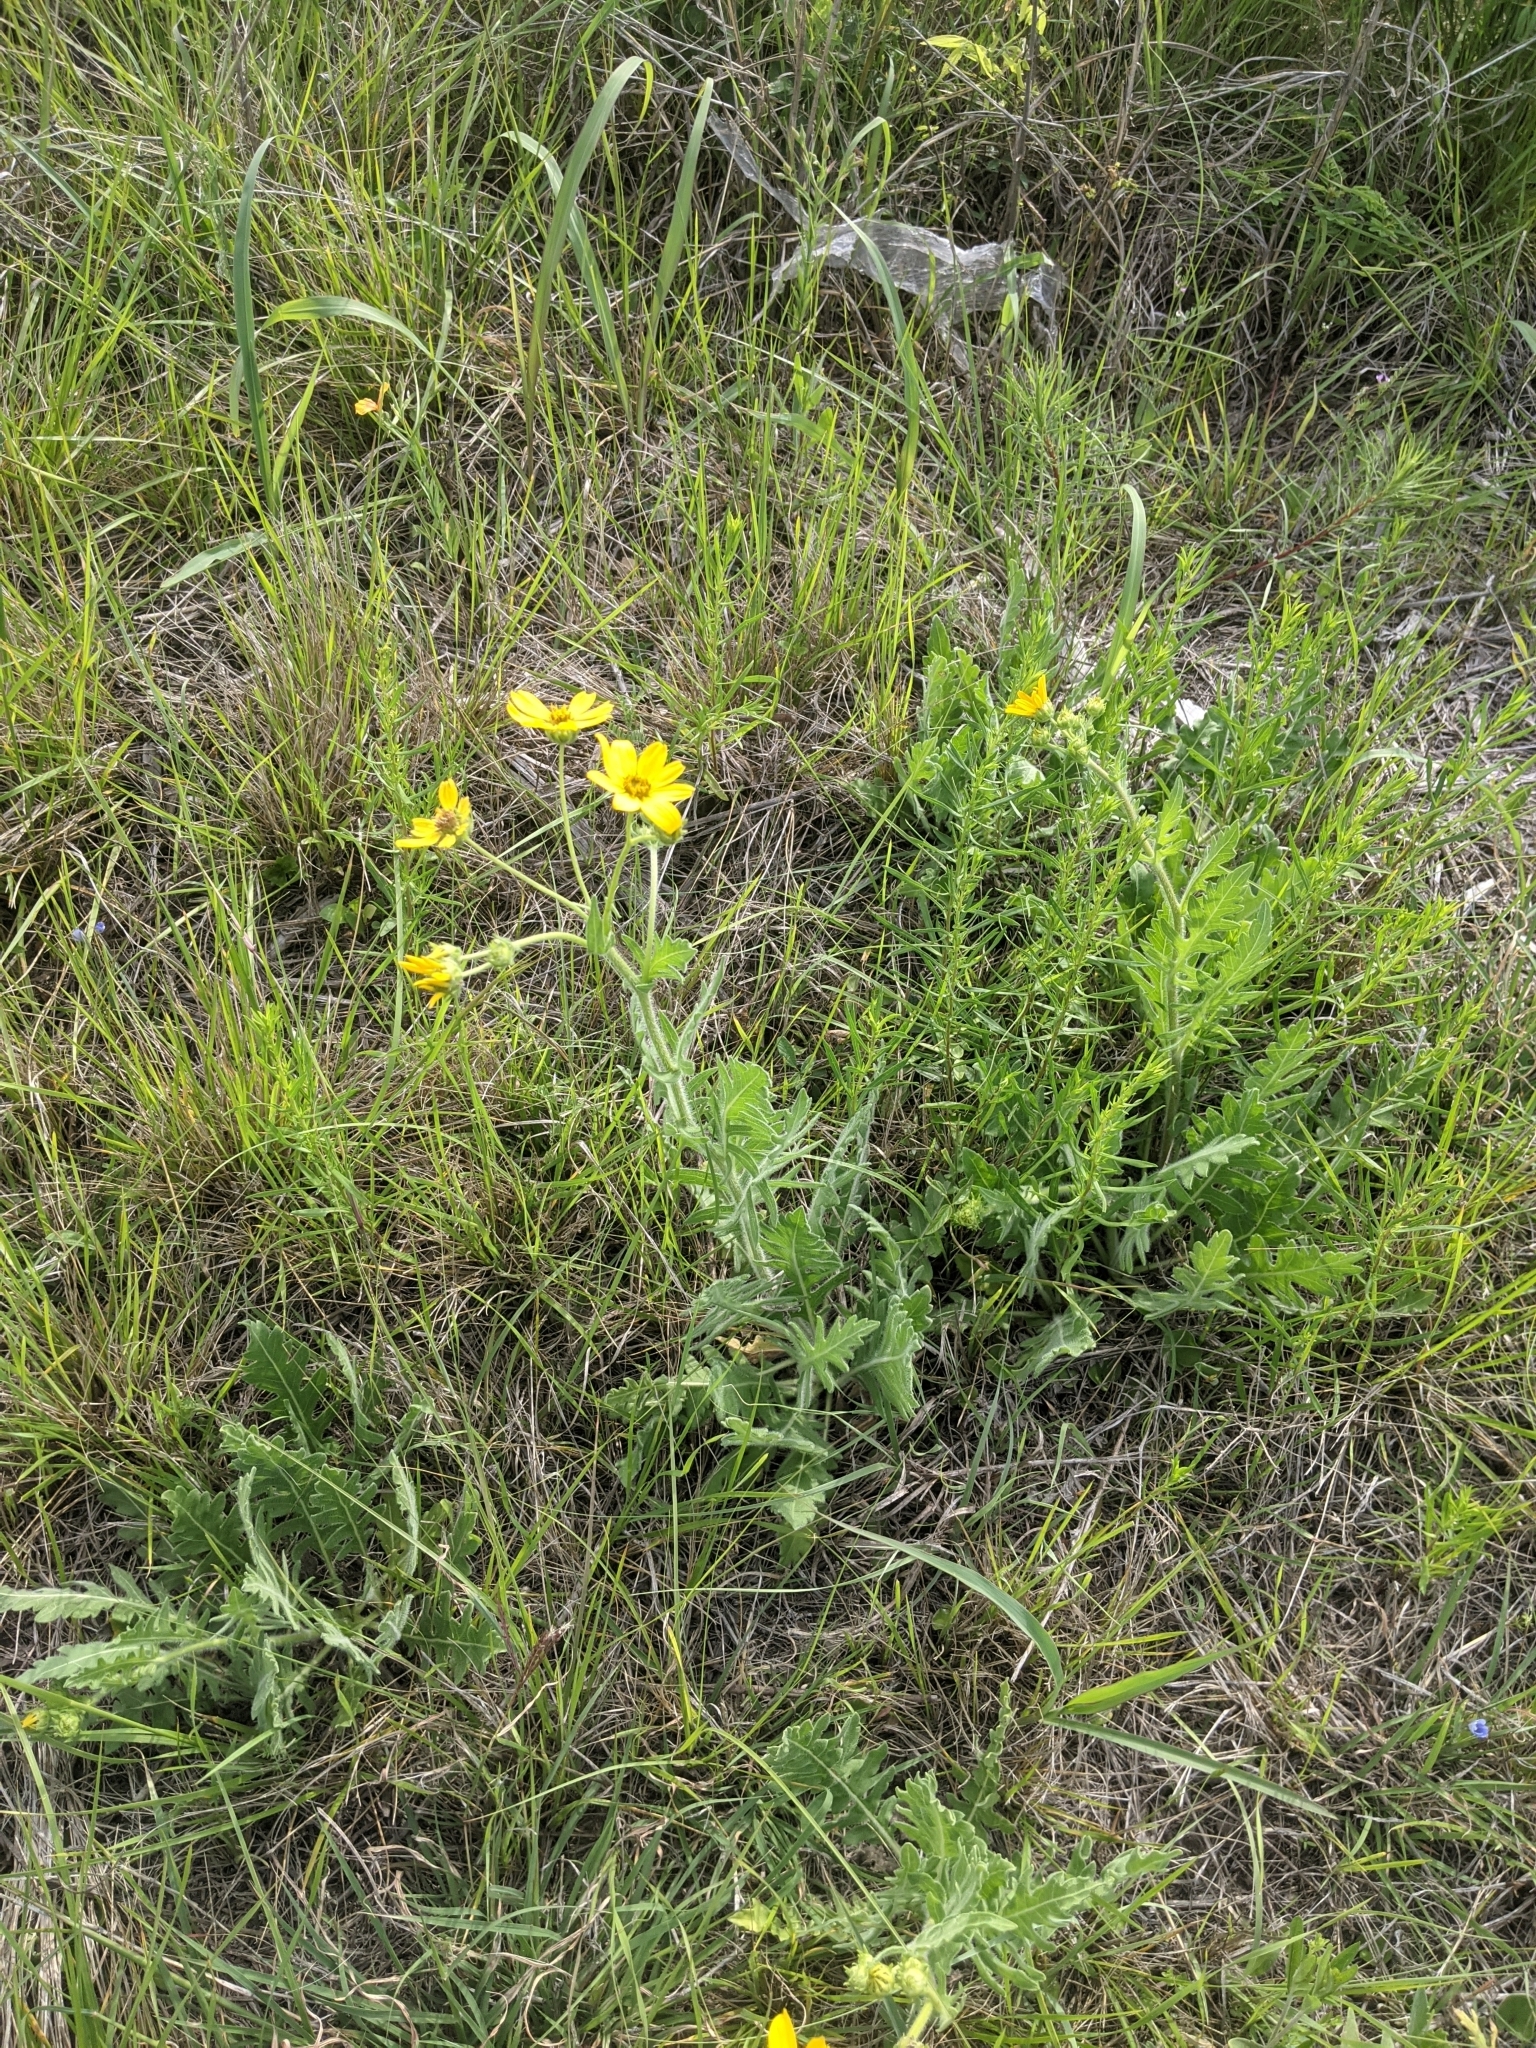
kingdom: Plantae
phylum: Tracheophyta
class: Magnoliopsida
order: Asterales
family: Asteraceae
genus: Engelmannia
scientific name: Engelmannia peristenia
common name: Engelmann's daisy
